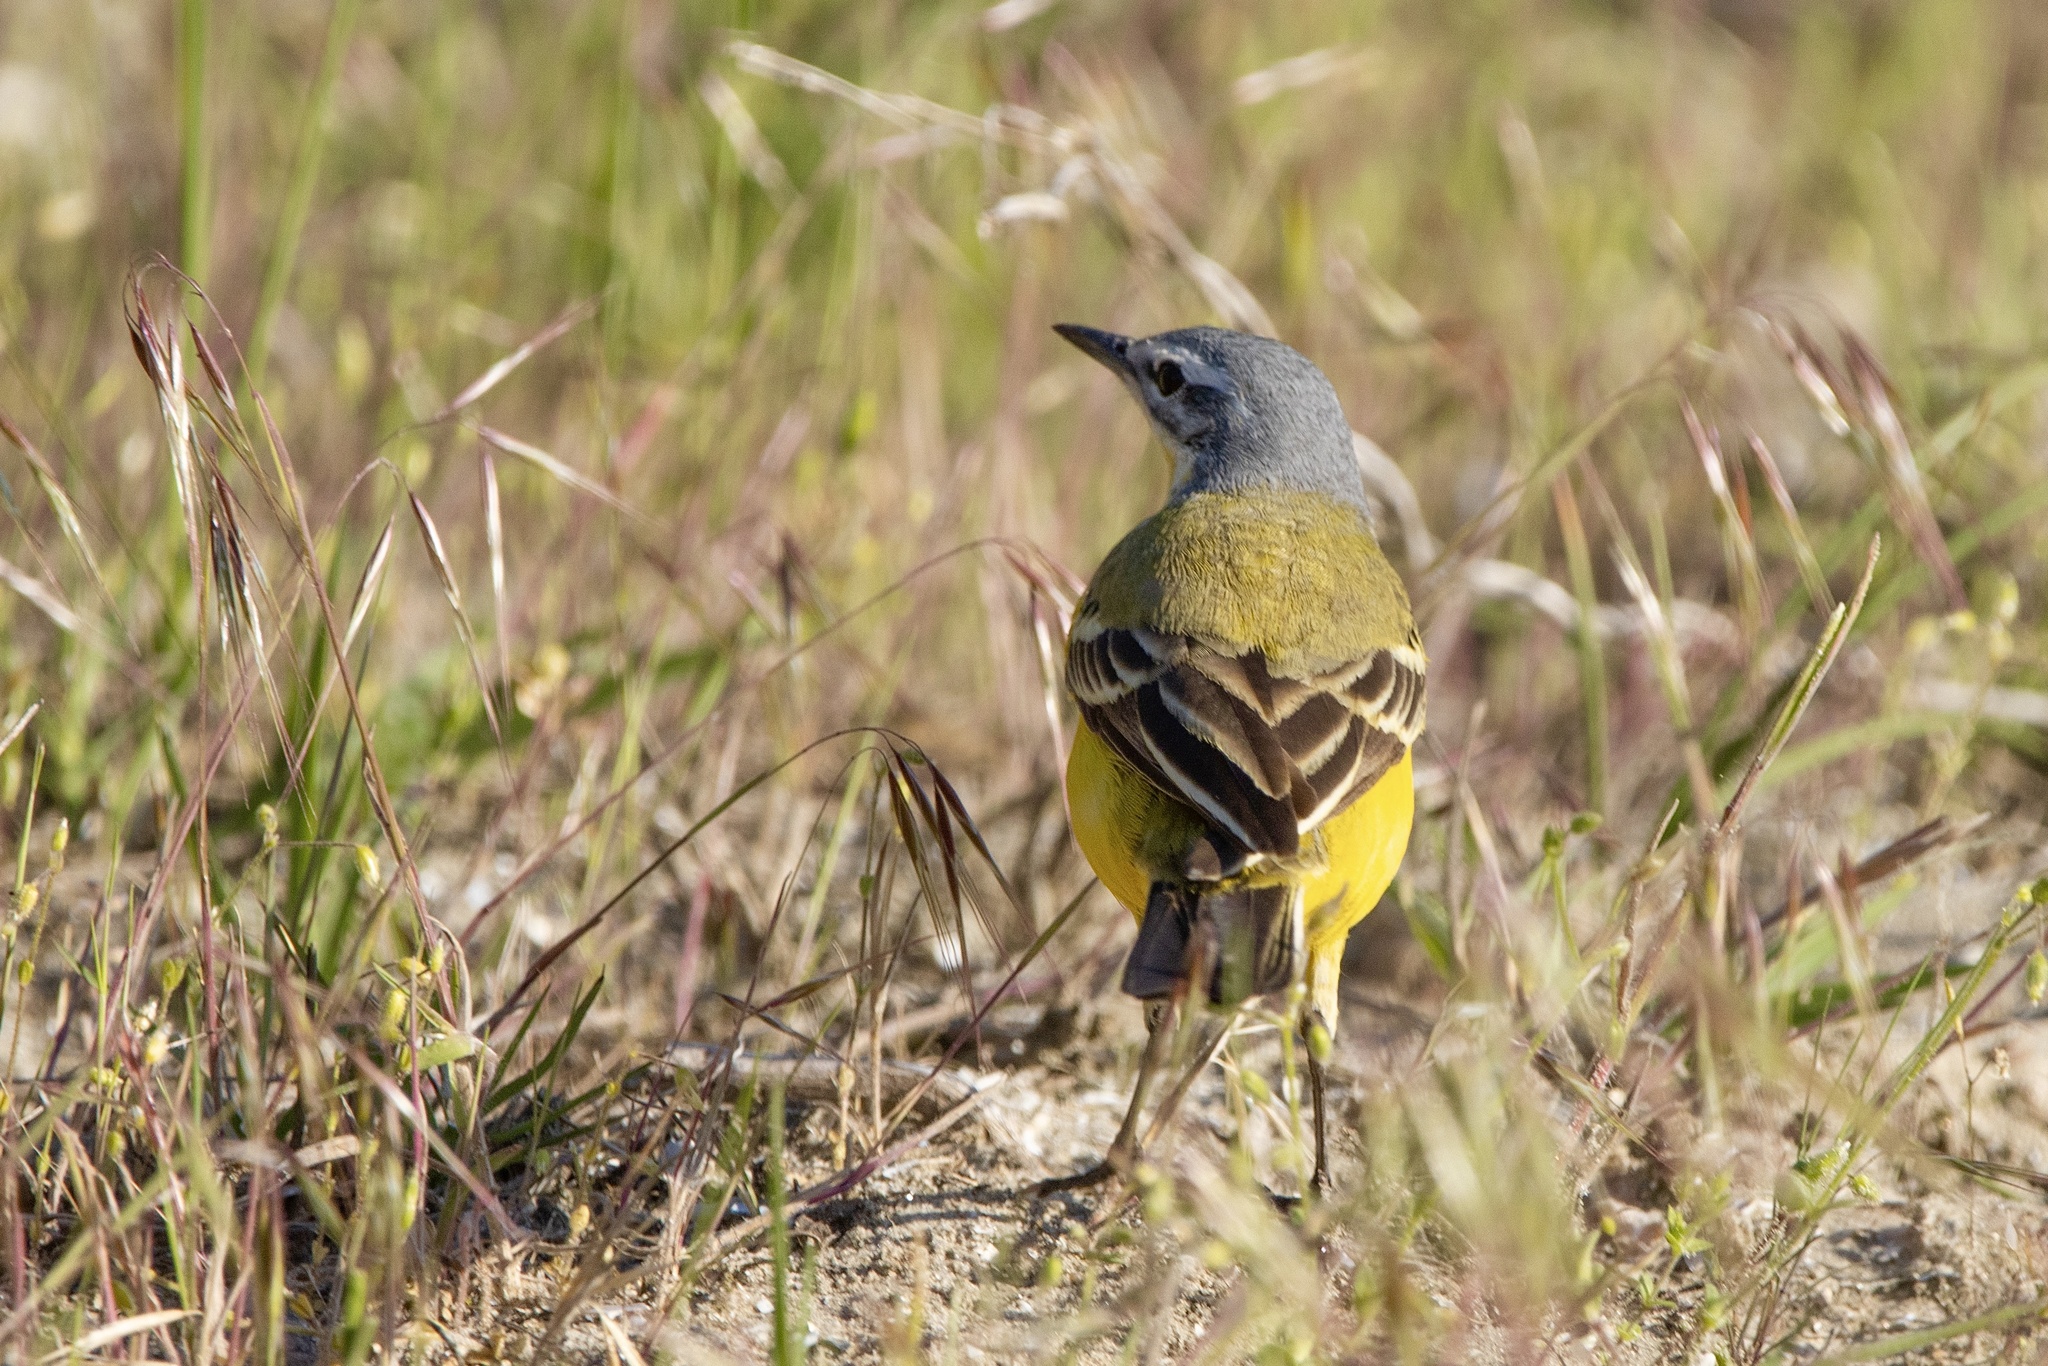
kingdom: Animalia
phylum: Chordata
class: Aves
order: Passeriformes
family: Motacillidae
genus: Motacilla
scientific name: Motacilla flava
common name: Western yellow wagtail
